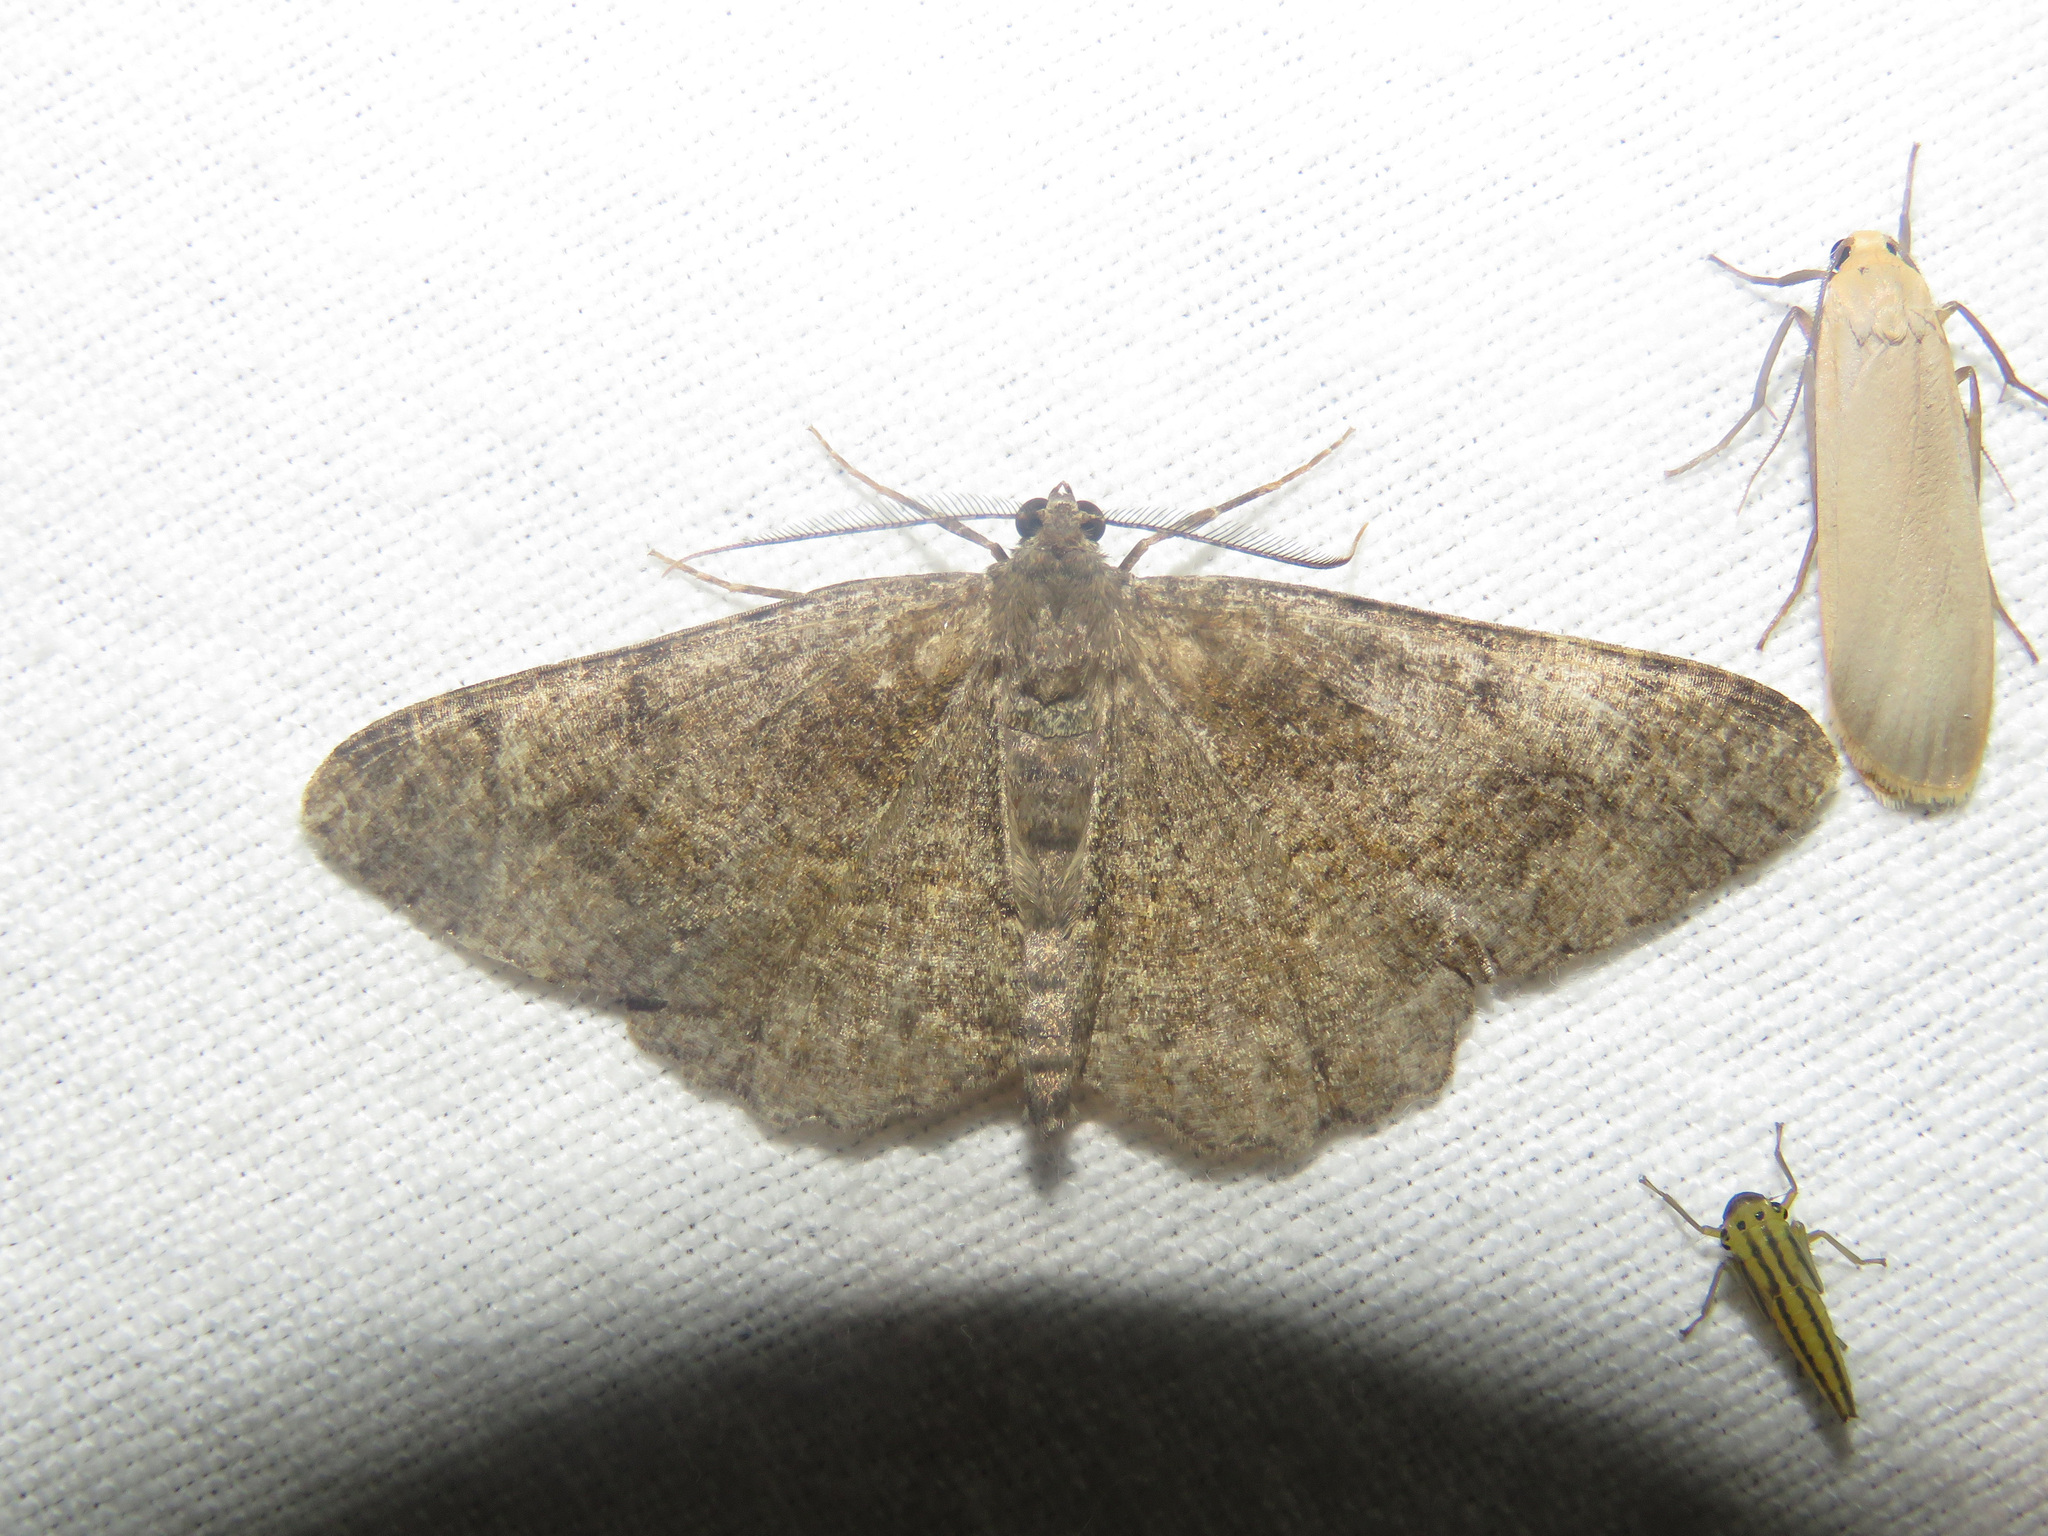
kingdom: Animalia
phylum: Arthropoda
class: Insecta
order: Lepidoptera
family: Geometridae
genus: Alcis
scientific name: Alcis repandata
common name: Mottled beauty
